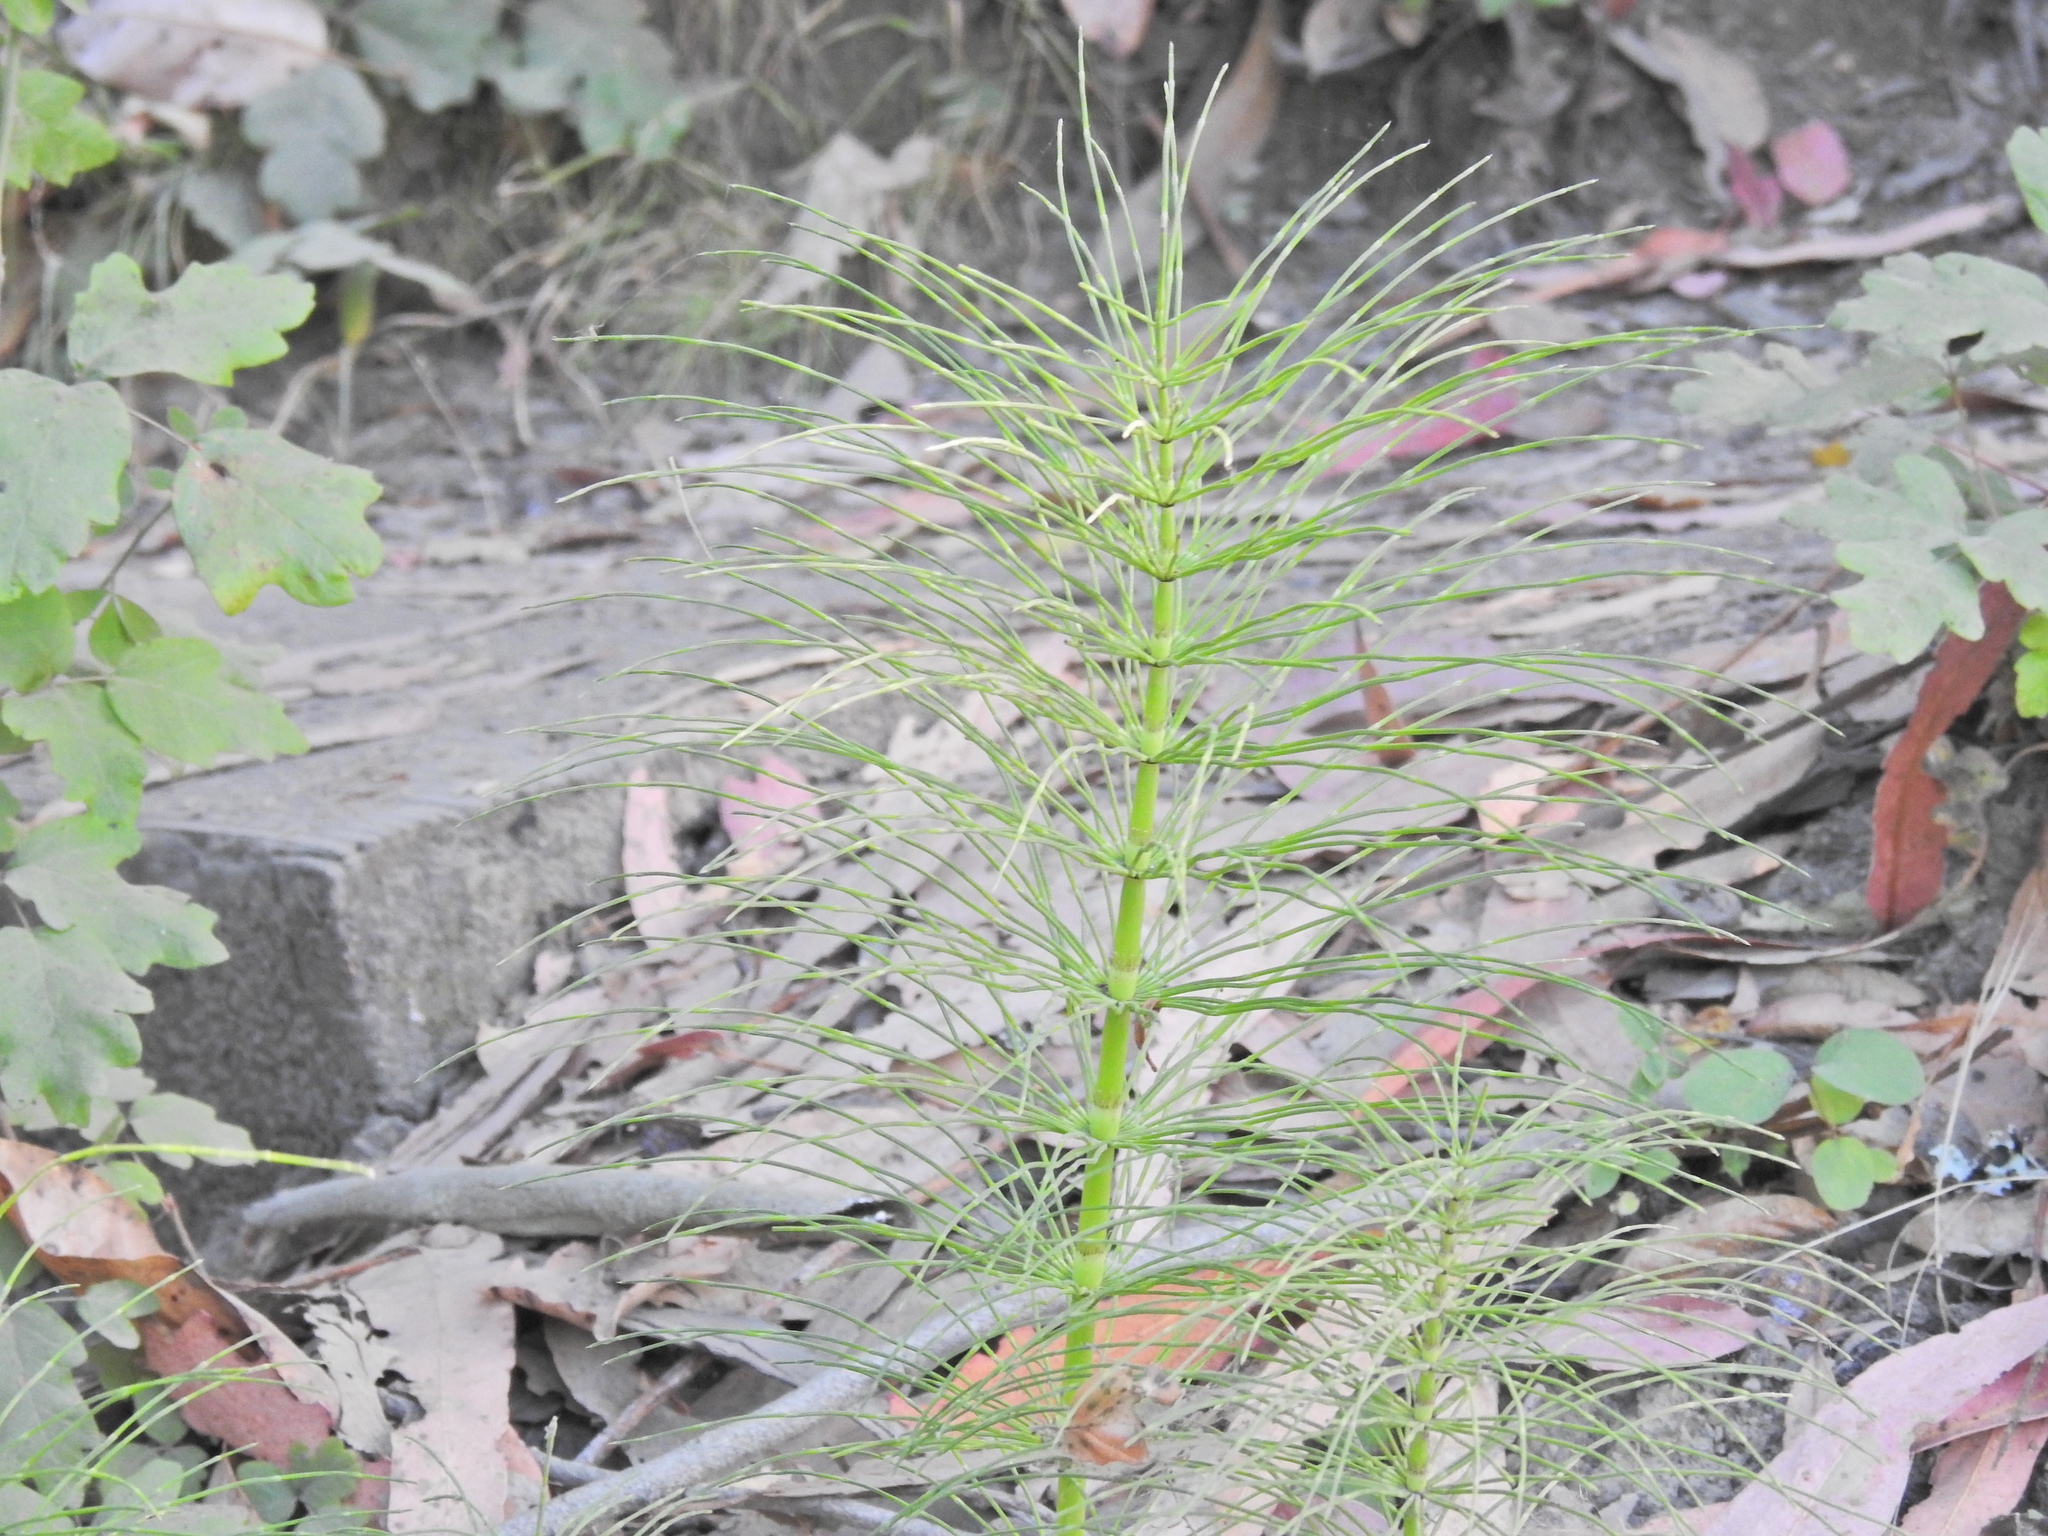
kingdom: Plantae
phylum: Tracheophyta
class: Polypodiopsida
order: Equisetales
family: Equisetaceae
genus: Equisetum
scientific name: Equisetum telmateia
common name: Great horsetail
